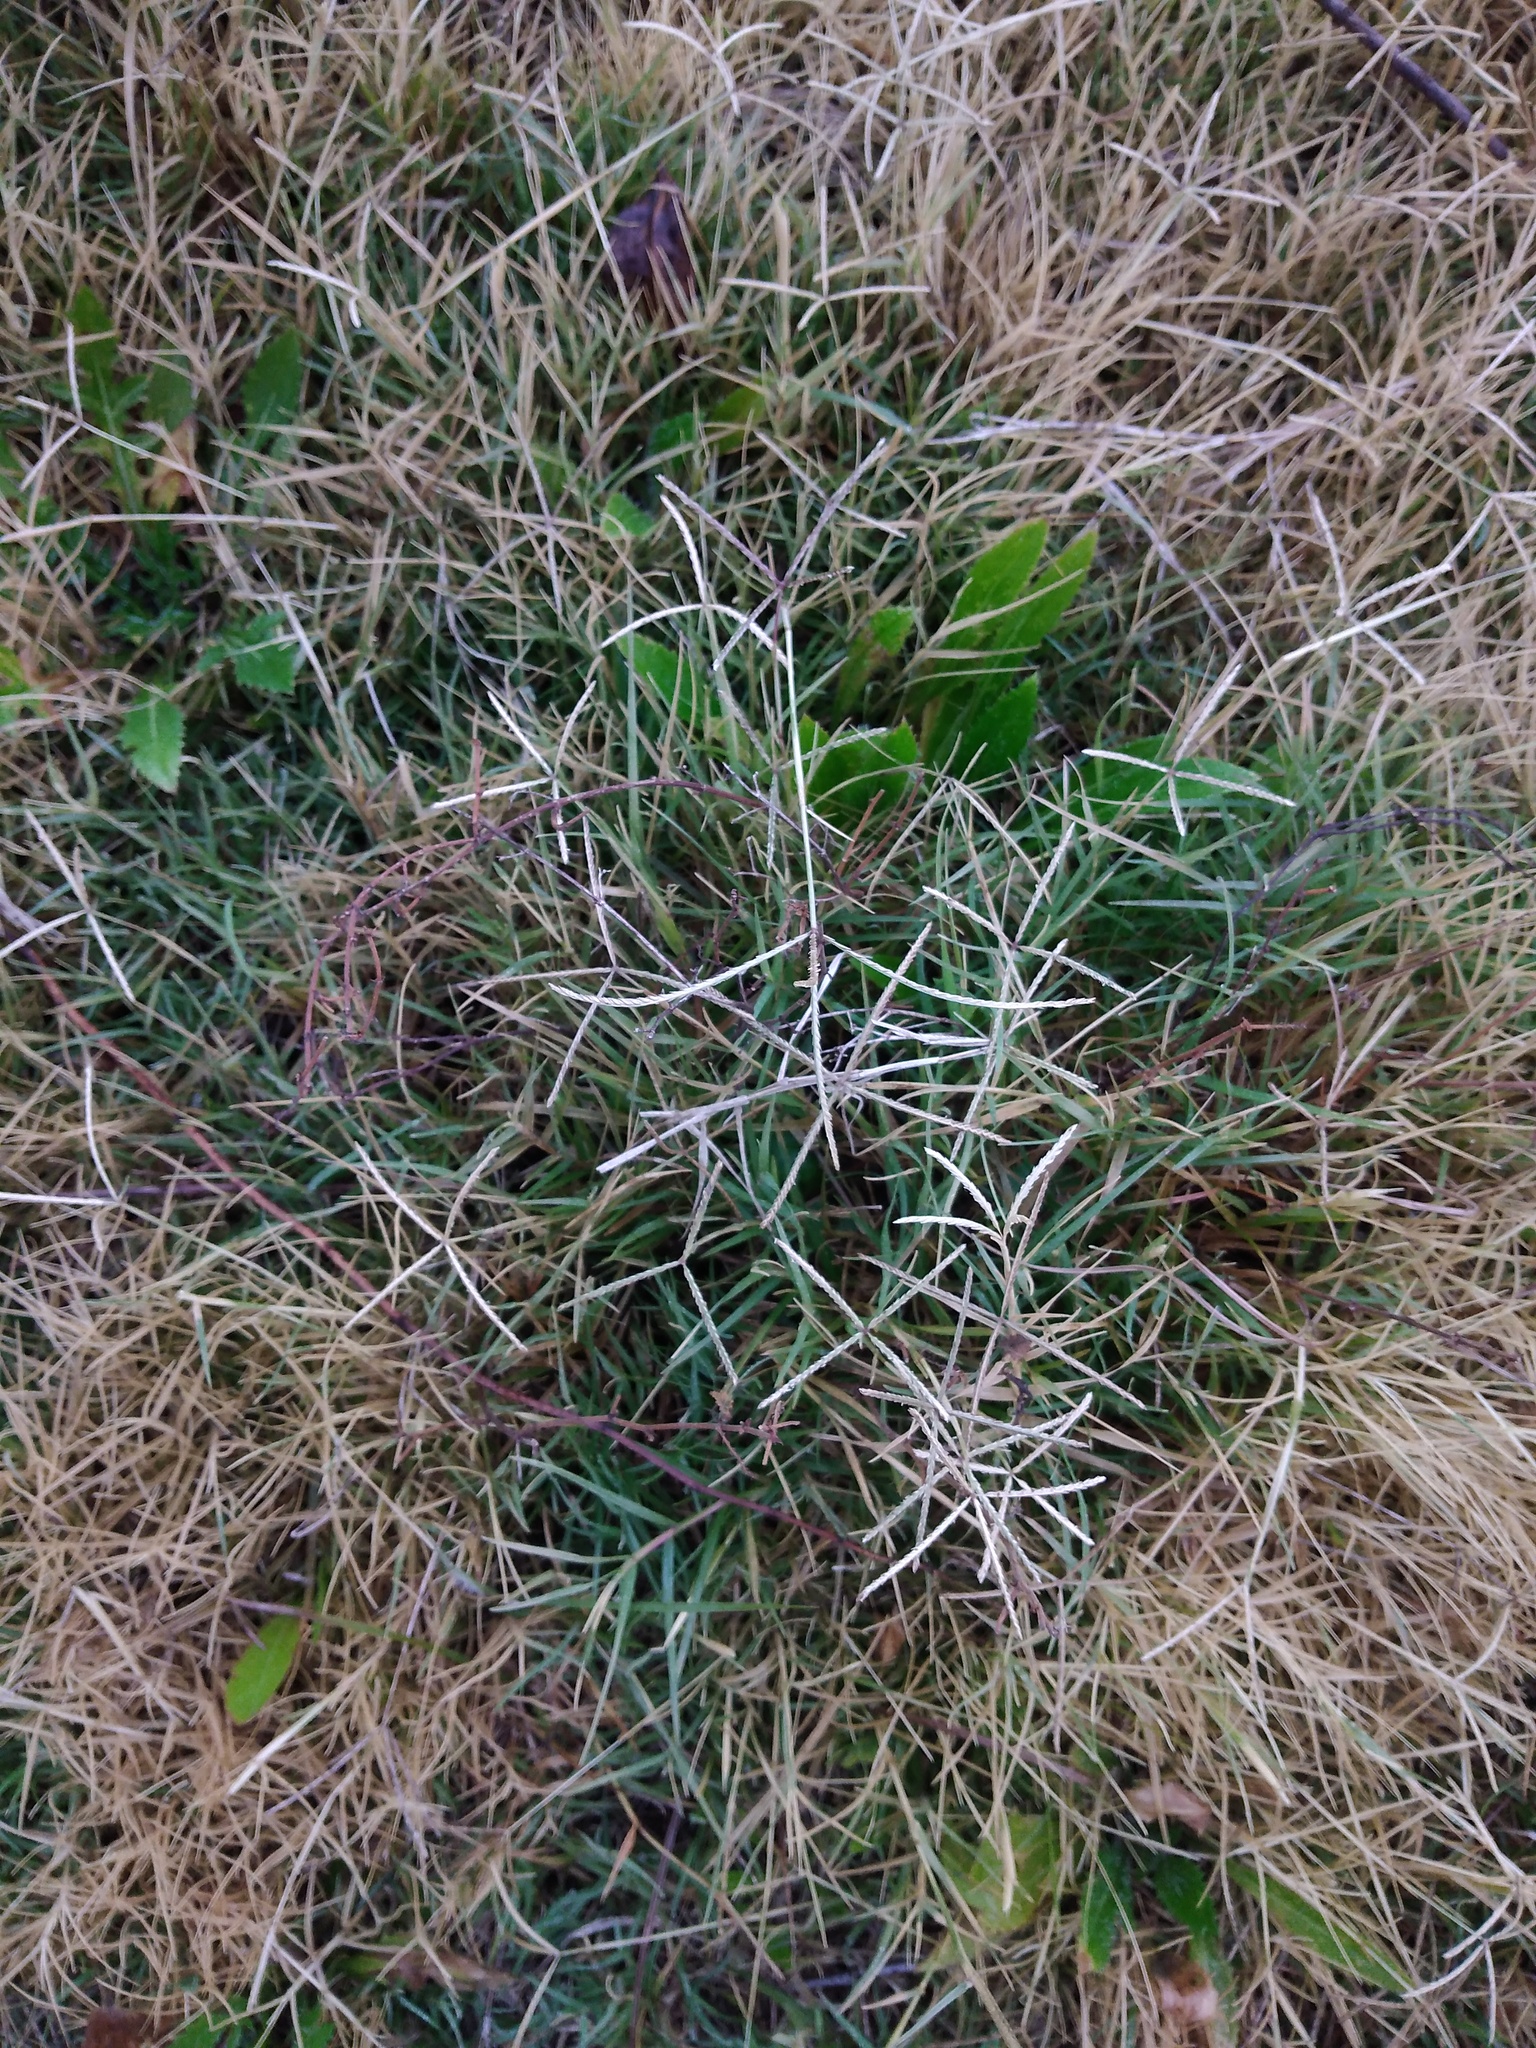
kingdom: Plantae
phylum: Tracheophyta
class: Liliopsida
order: Poales
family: Poaceae
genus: Cynodon
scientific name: Cynodon dactylon
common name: Bermuda grass
